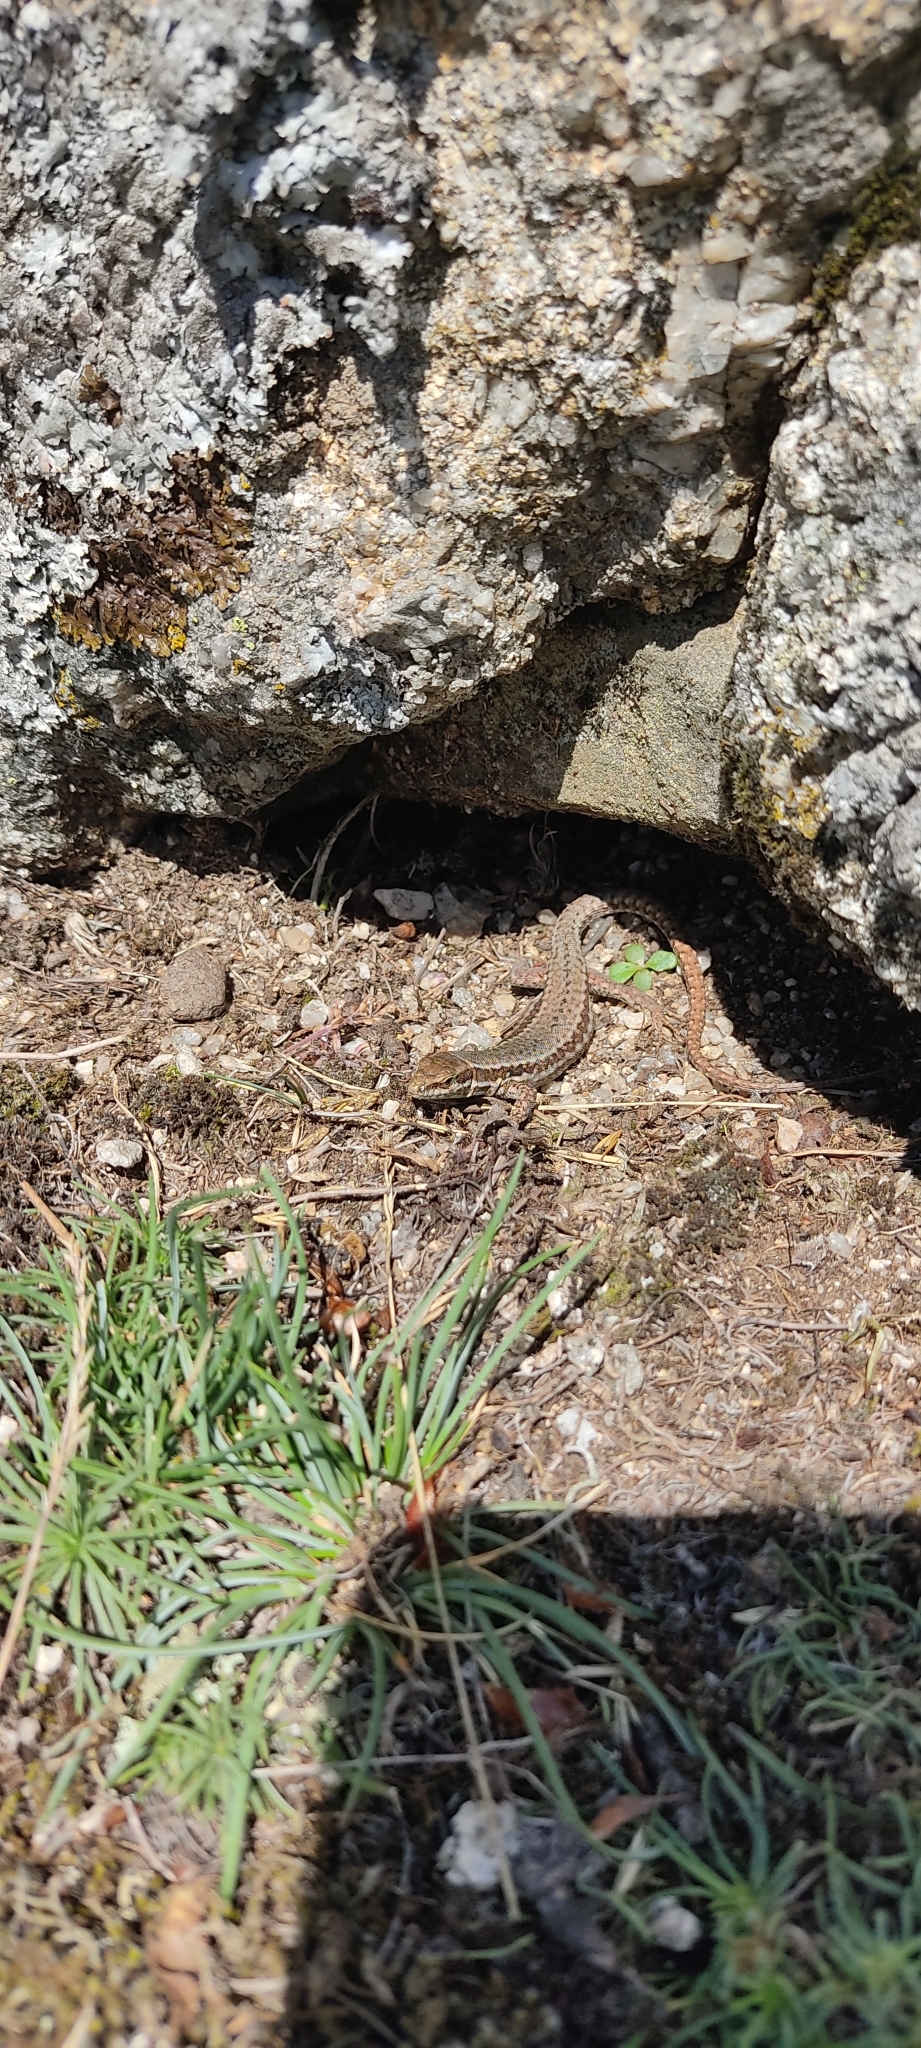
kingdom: Animalia
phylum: Chordata
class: Squamata
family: Lacertidae
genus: Podarcis
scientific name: Podarcis muralis
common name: Common wall lizard
